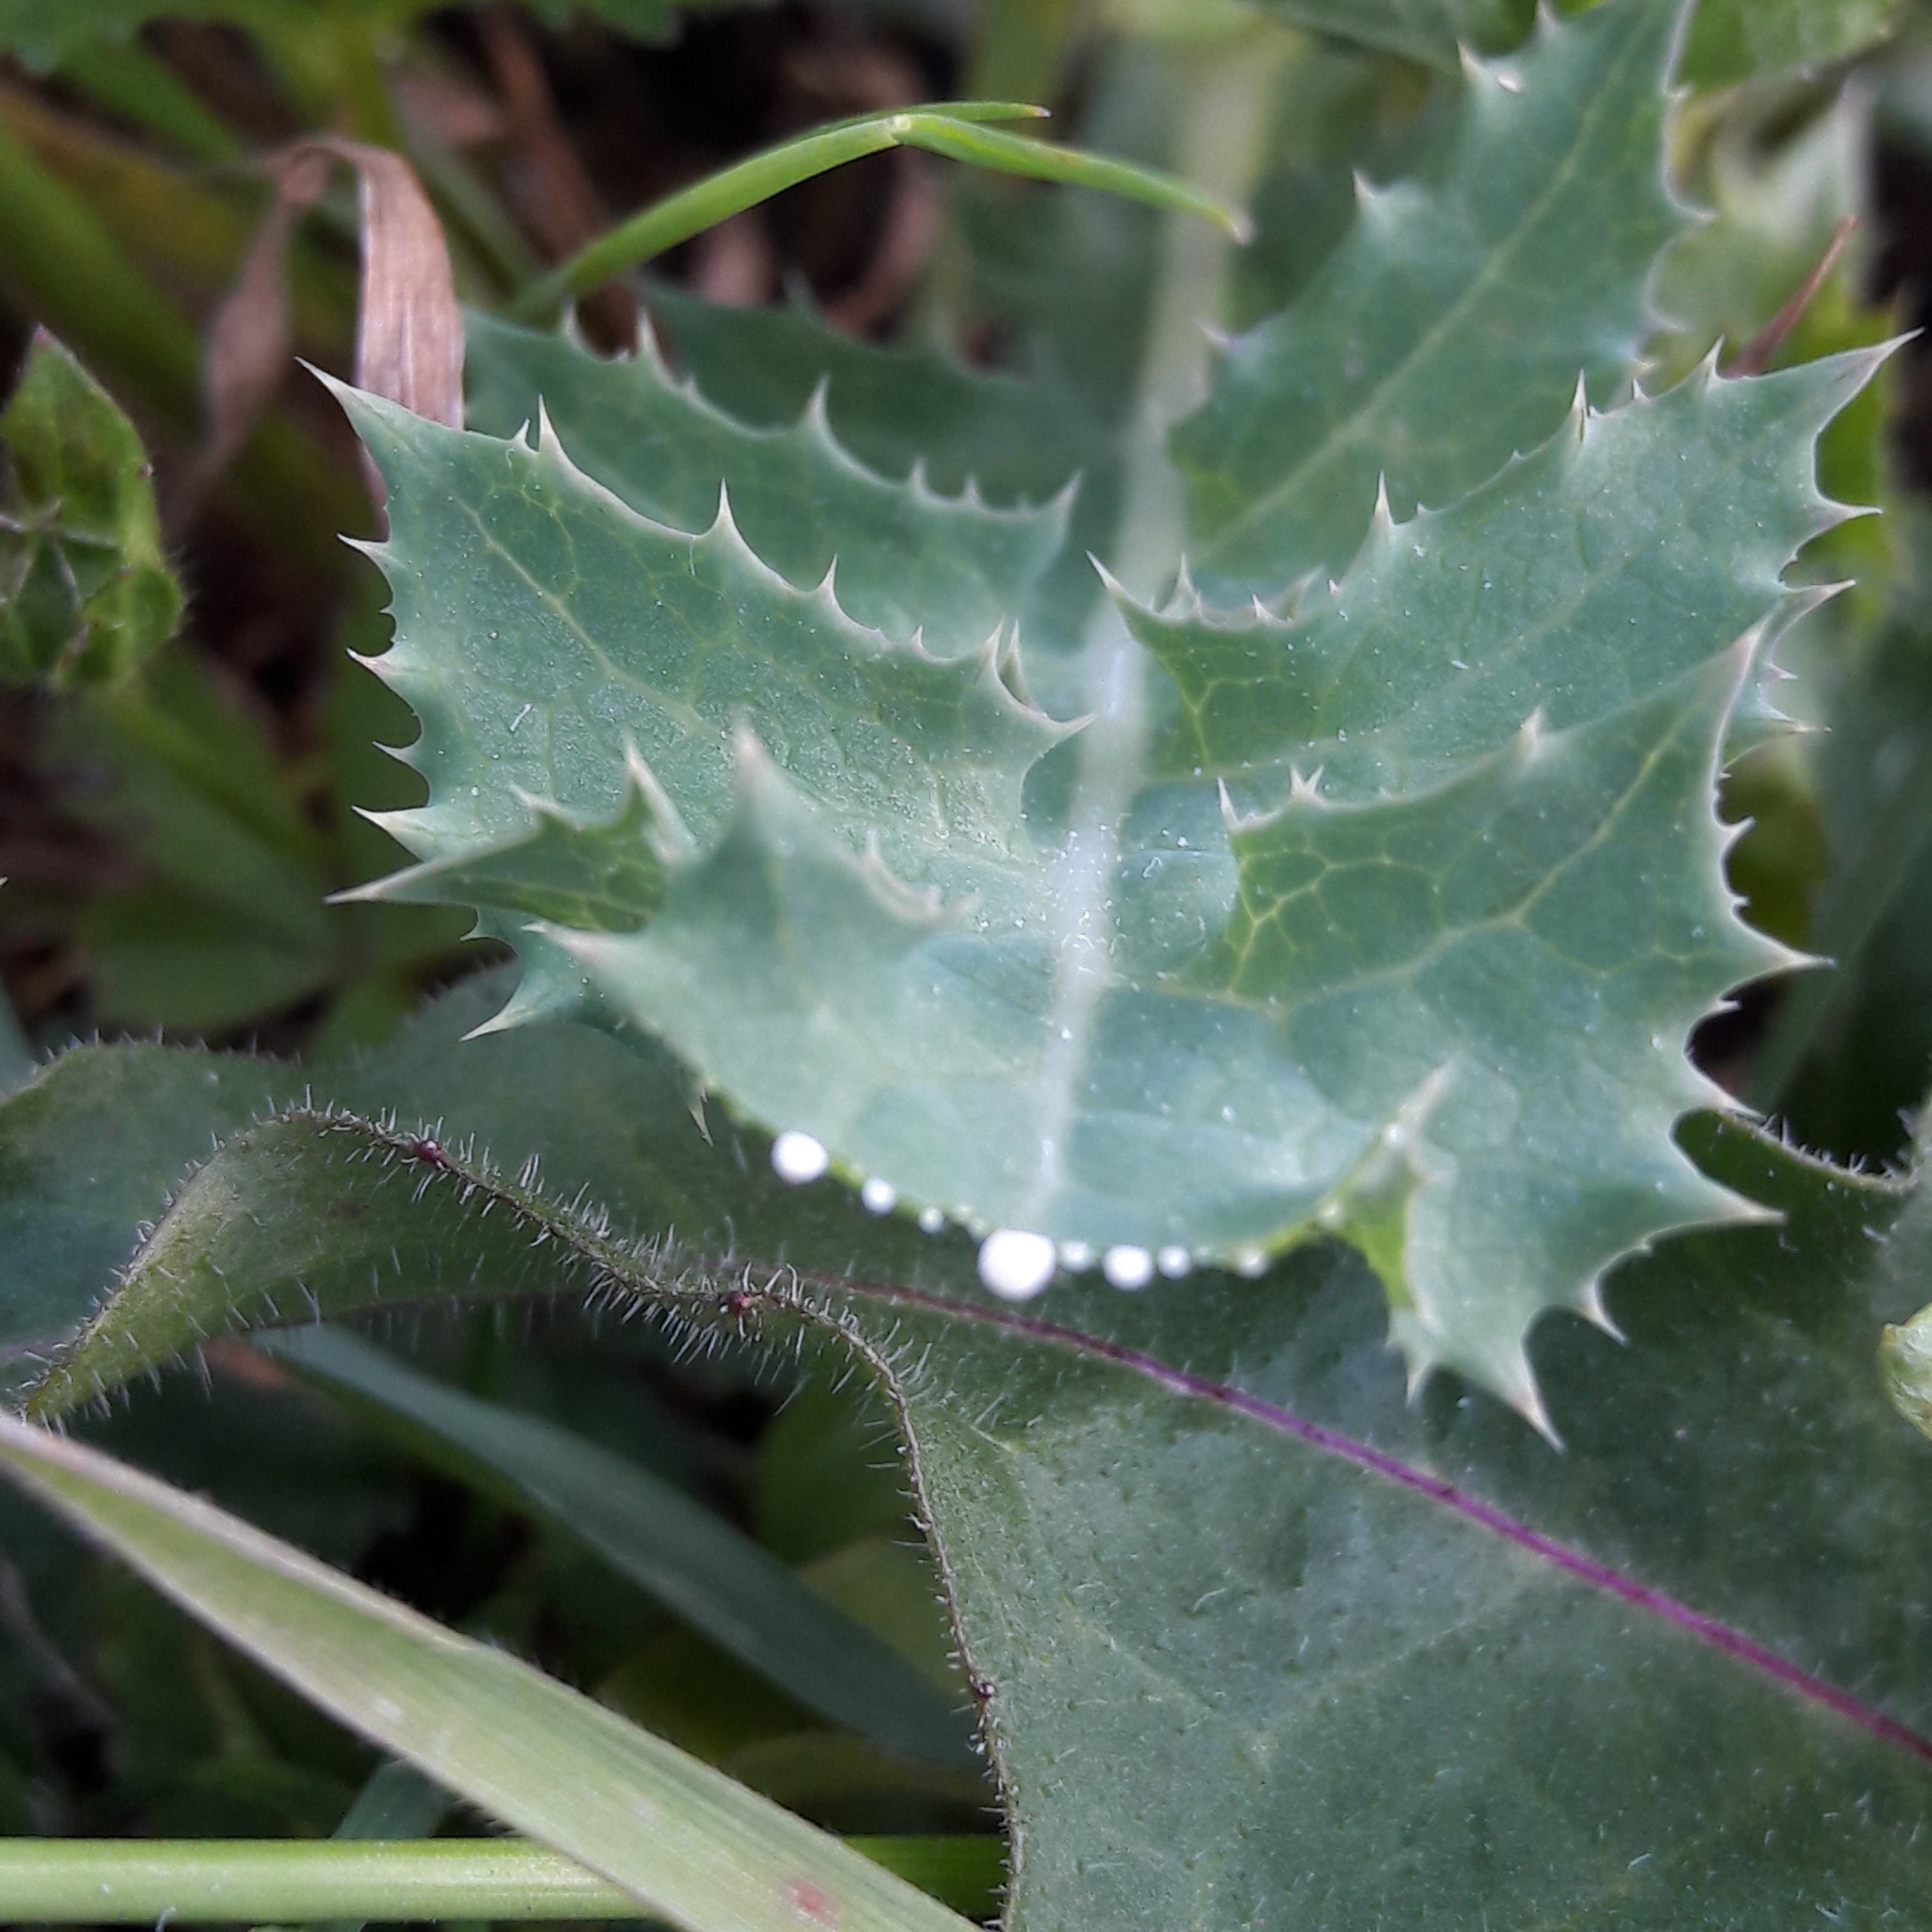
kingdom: Plantae
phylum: Tracheophyta
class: Magnoliopsida
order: Asterales
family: Asteraceae
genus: Sonchus
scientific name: Sonchus asper
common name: Prickly sow-thistle
